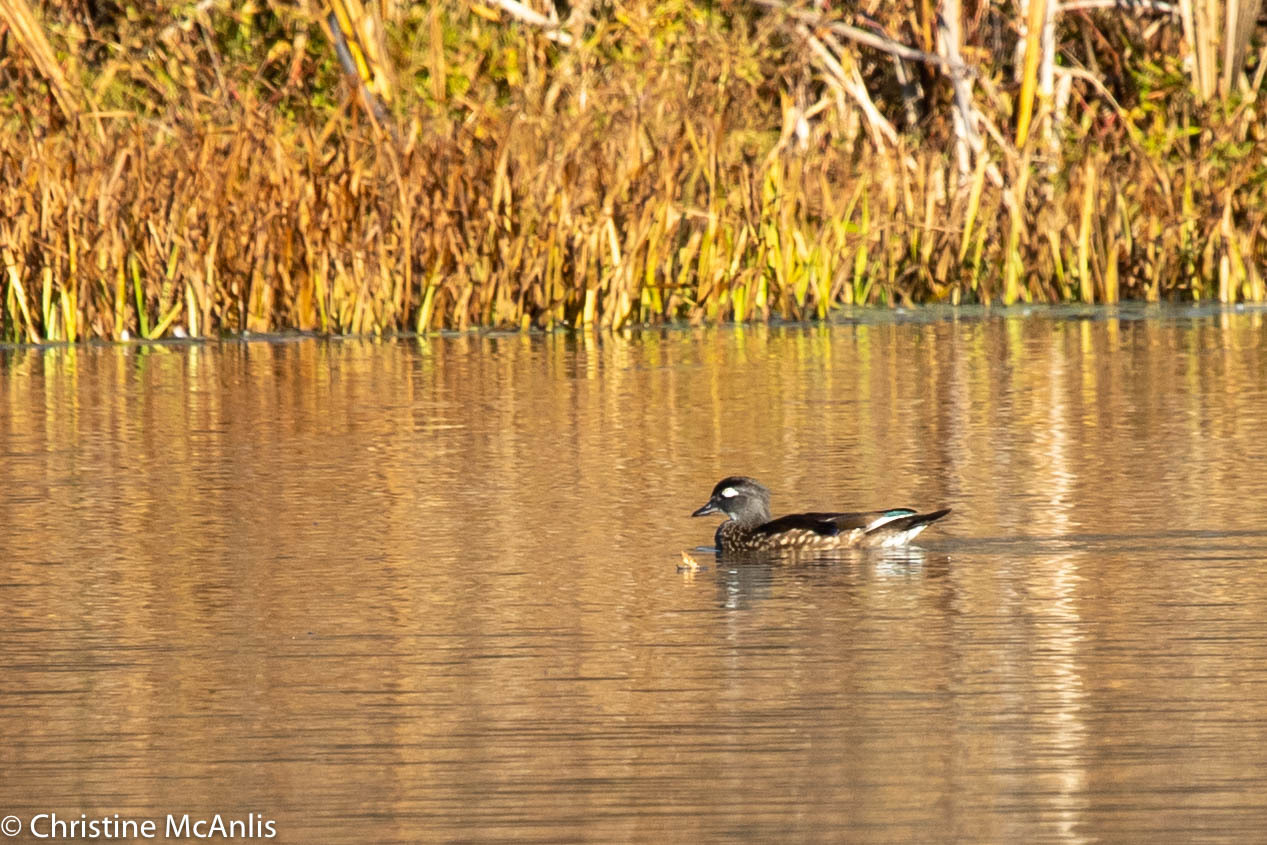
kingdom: Animalia
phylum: Chordata
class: Aves
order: Anseriformes
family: Anatidae
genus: Aix
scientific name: Aix sponsa
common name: Wood duck
